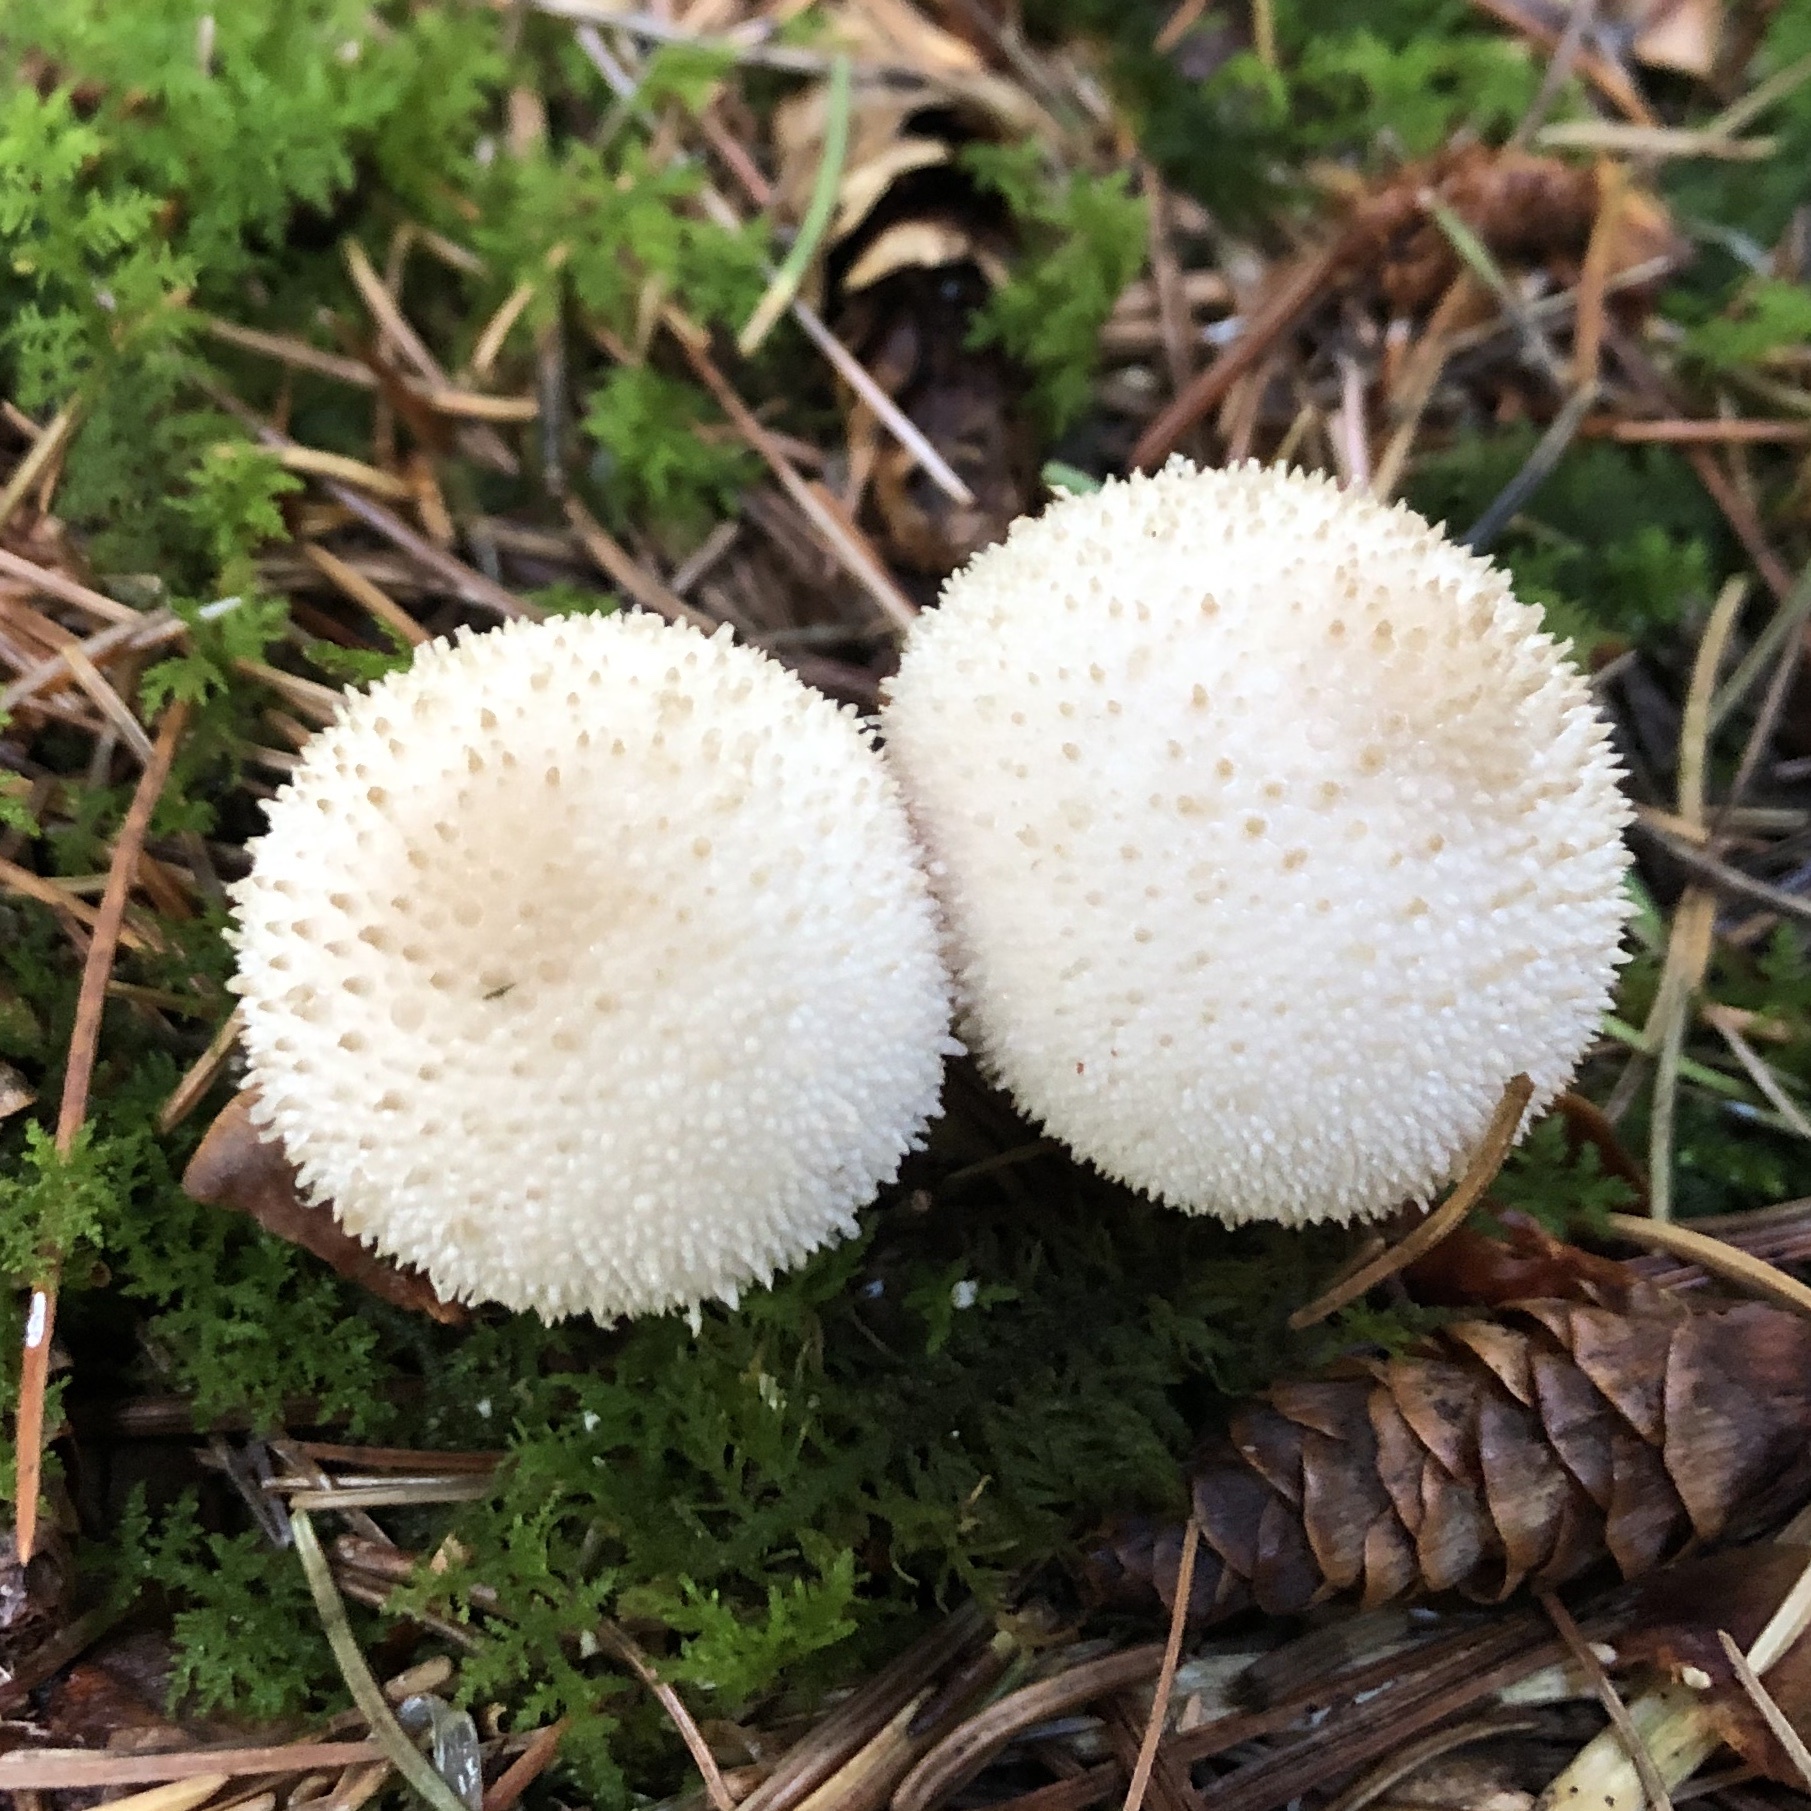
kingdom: Fungi
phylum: Basidiomycota
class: Agaricomycetes
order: Agaricales
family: Lycoperdaceae
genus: Lycoperdon
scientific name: Lycoperdon perlatum
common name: Common puffball
